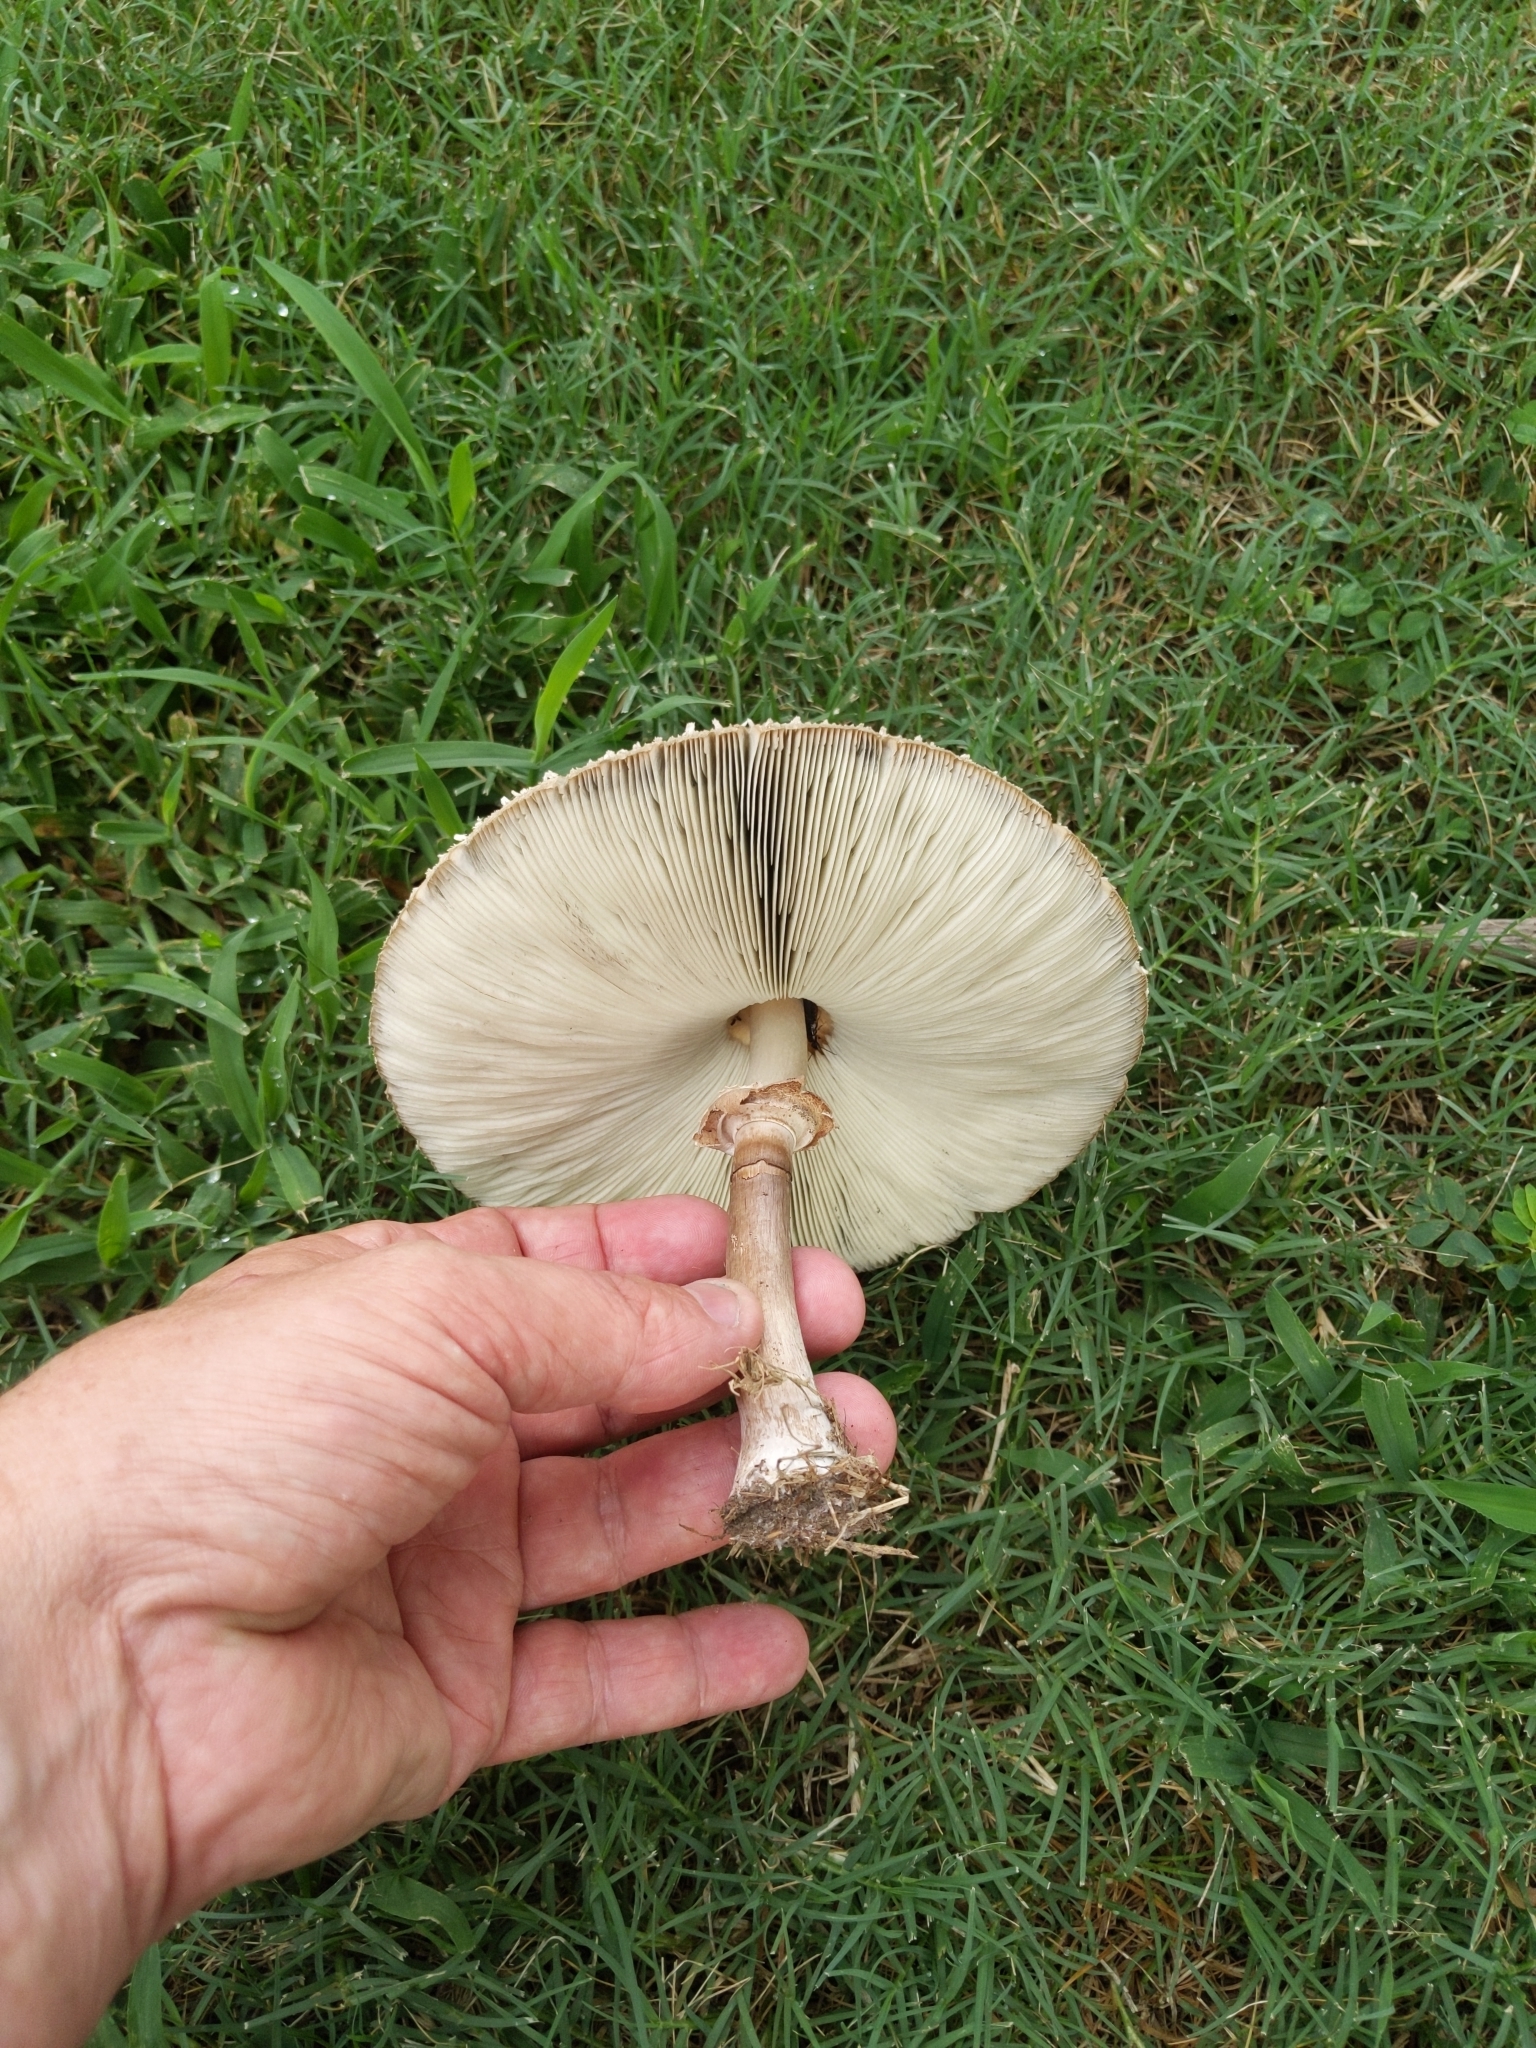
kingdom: Fungi
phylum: Basidiomycota
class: Agaricomycetes
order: Agaricales
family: Agaricaceae
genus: Chlorophyllum
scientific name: Chlorophyllum molybdites
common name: False parasol
